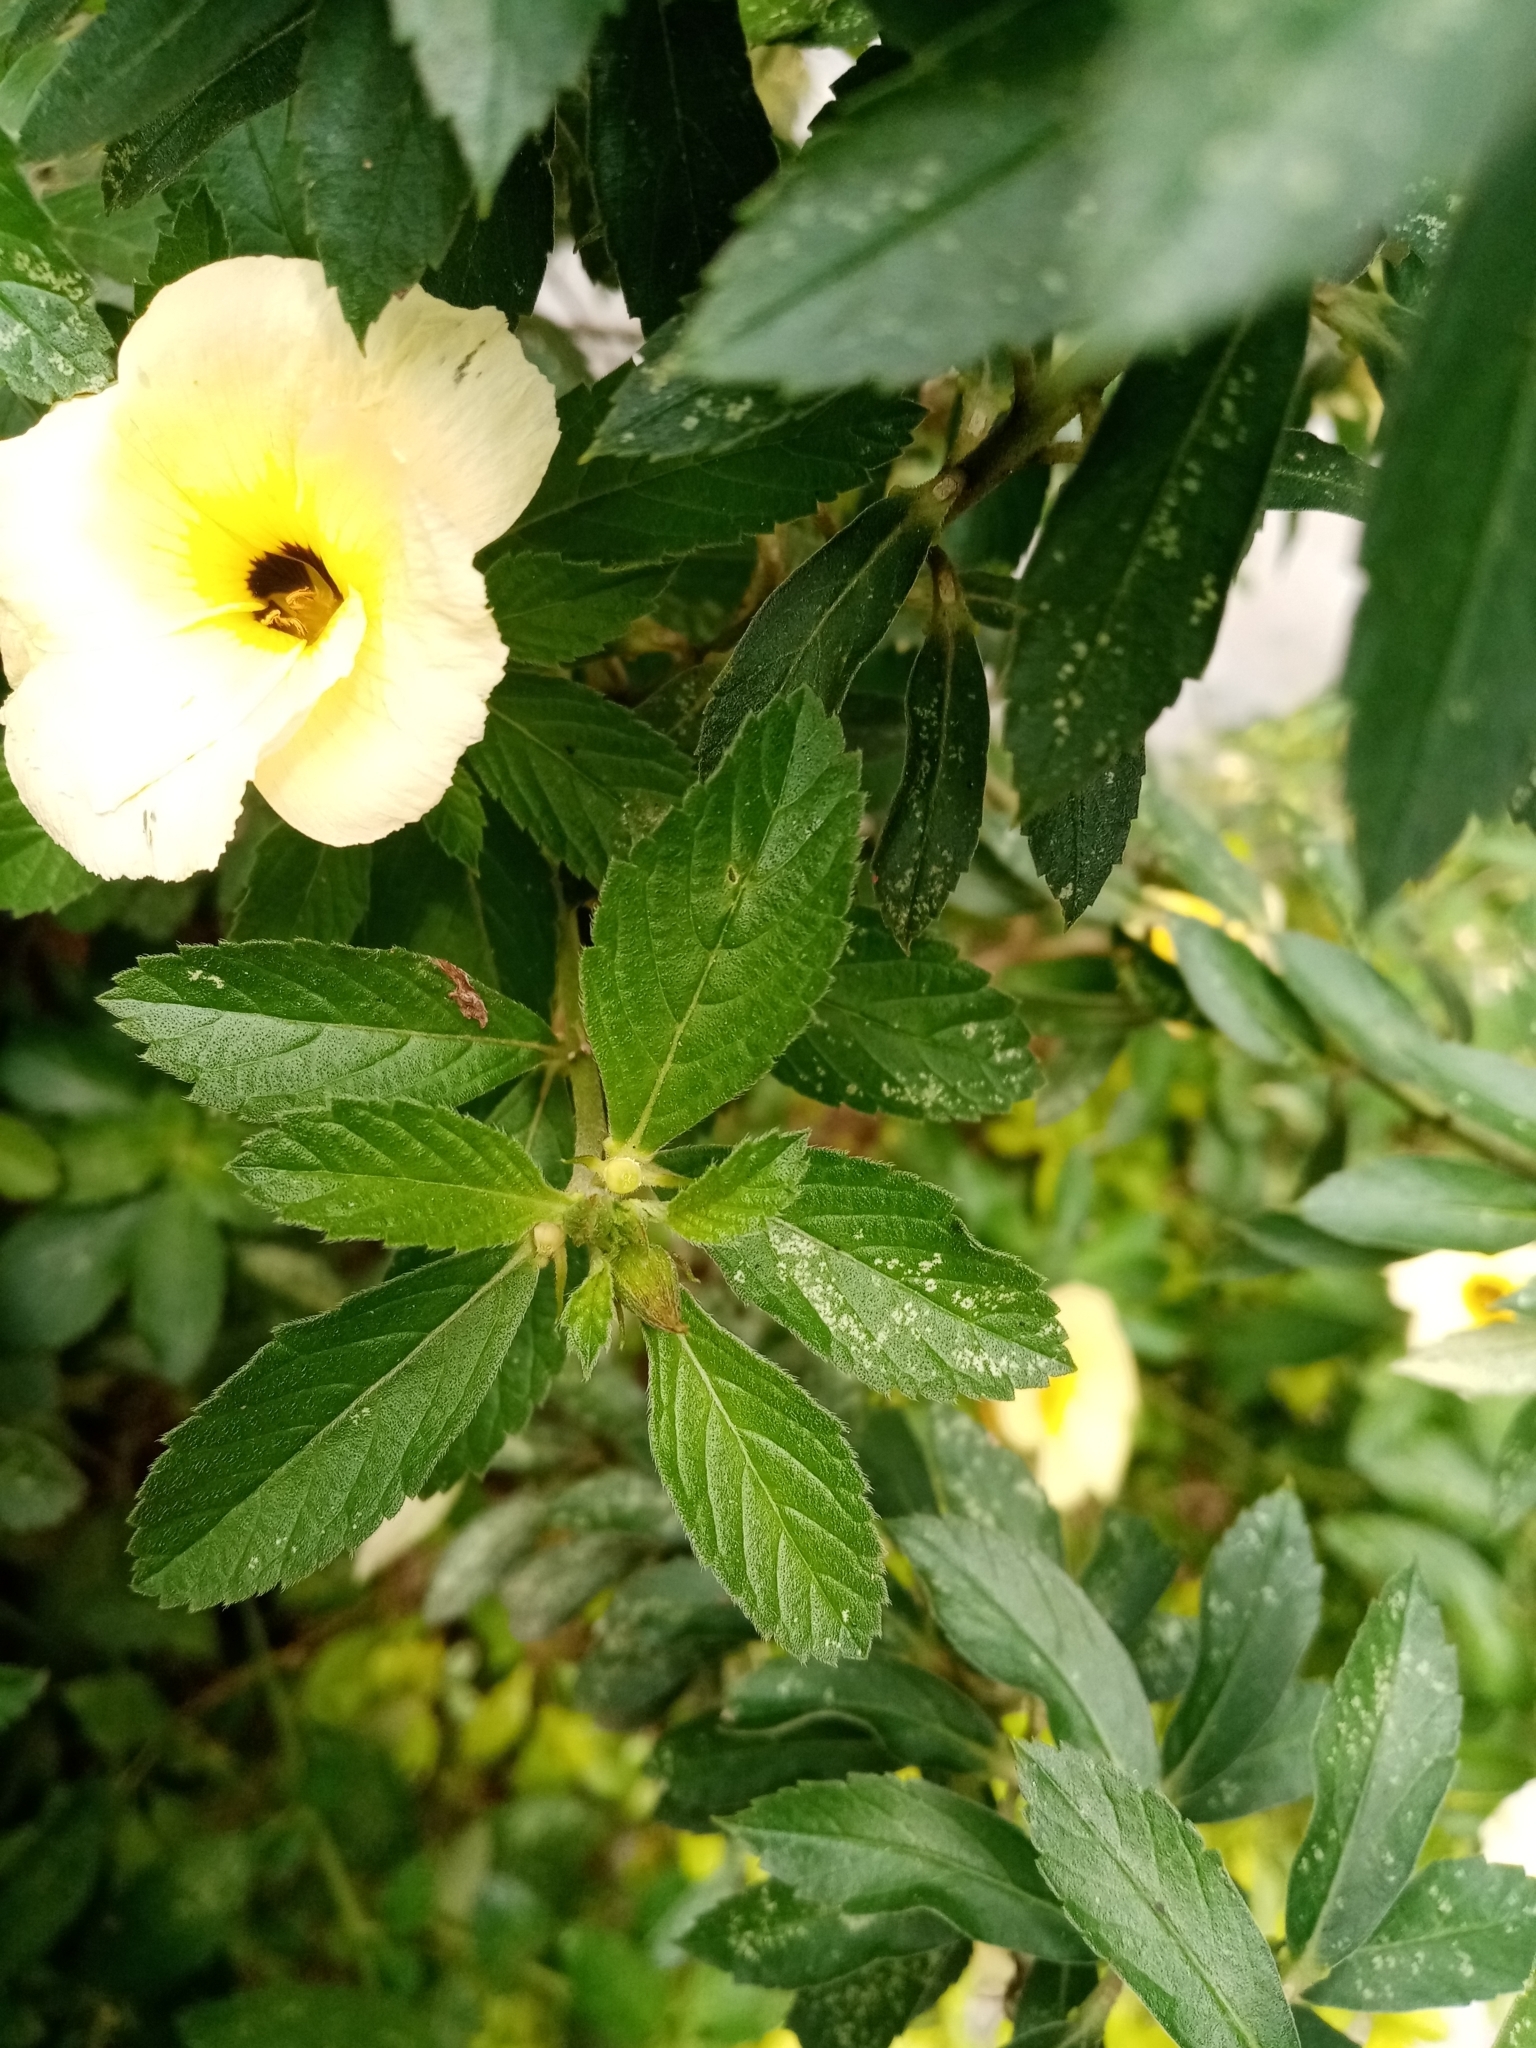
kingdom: Plantae
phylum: Tracheophyta
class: Magnoliopsida
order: Malpighiales
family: Turneraceae
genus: Turnera
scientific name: Turnera subulata
